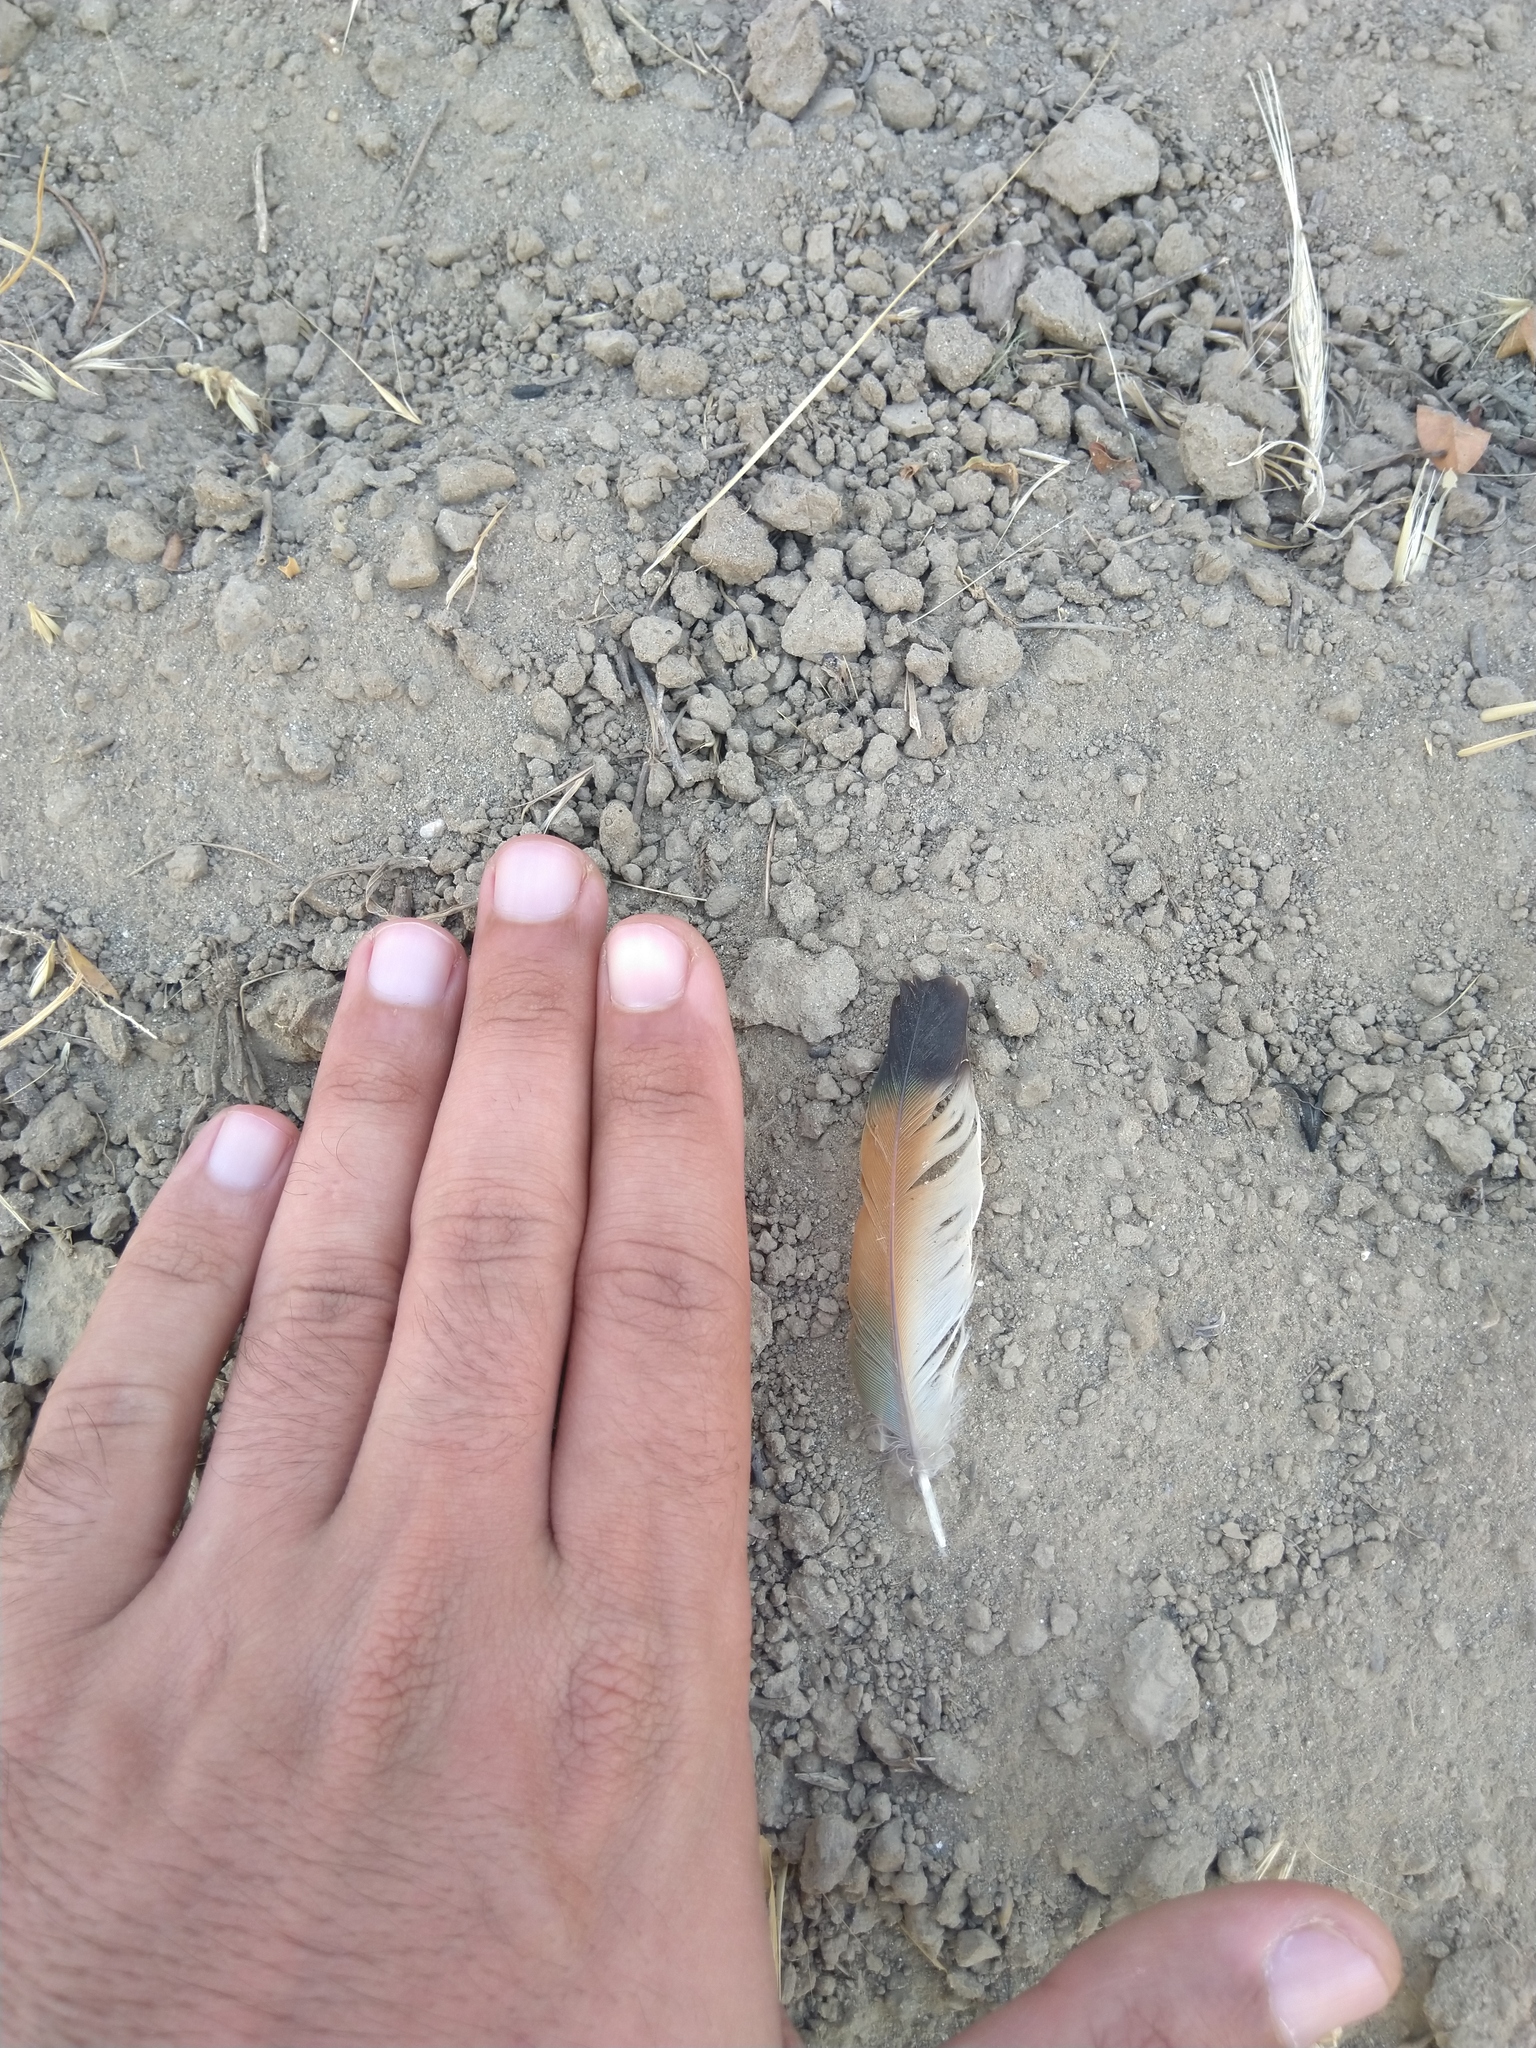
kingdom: Animalia
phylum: Chordata
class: Aves
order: Coraciiformes
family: Meropidae
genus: Merops
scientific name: Merops apiaster
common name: European bee-eater
